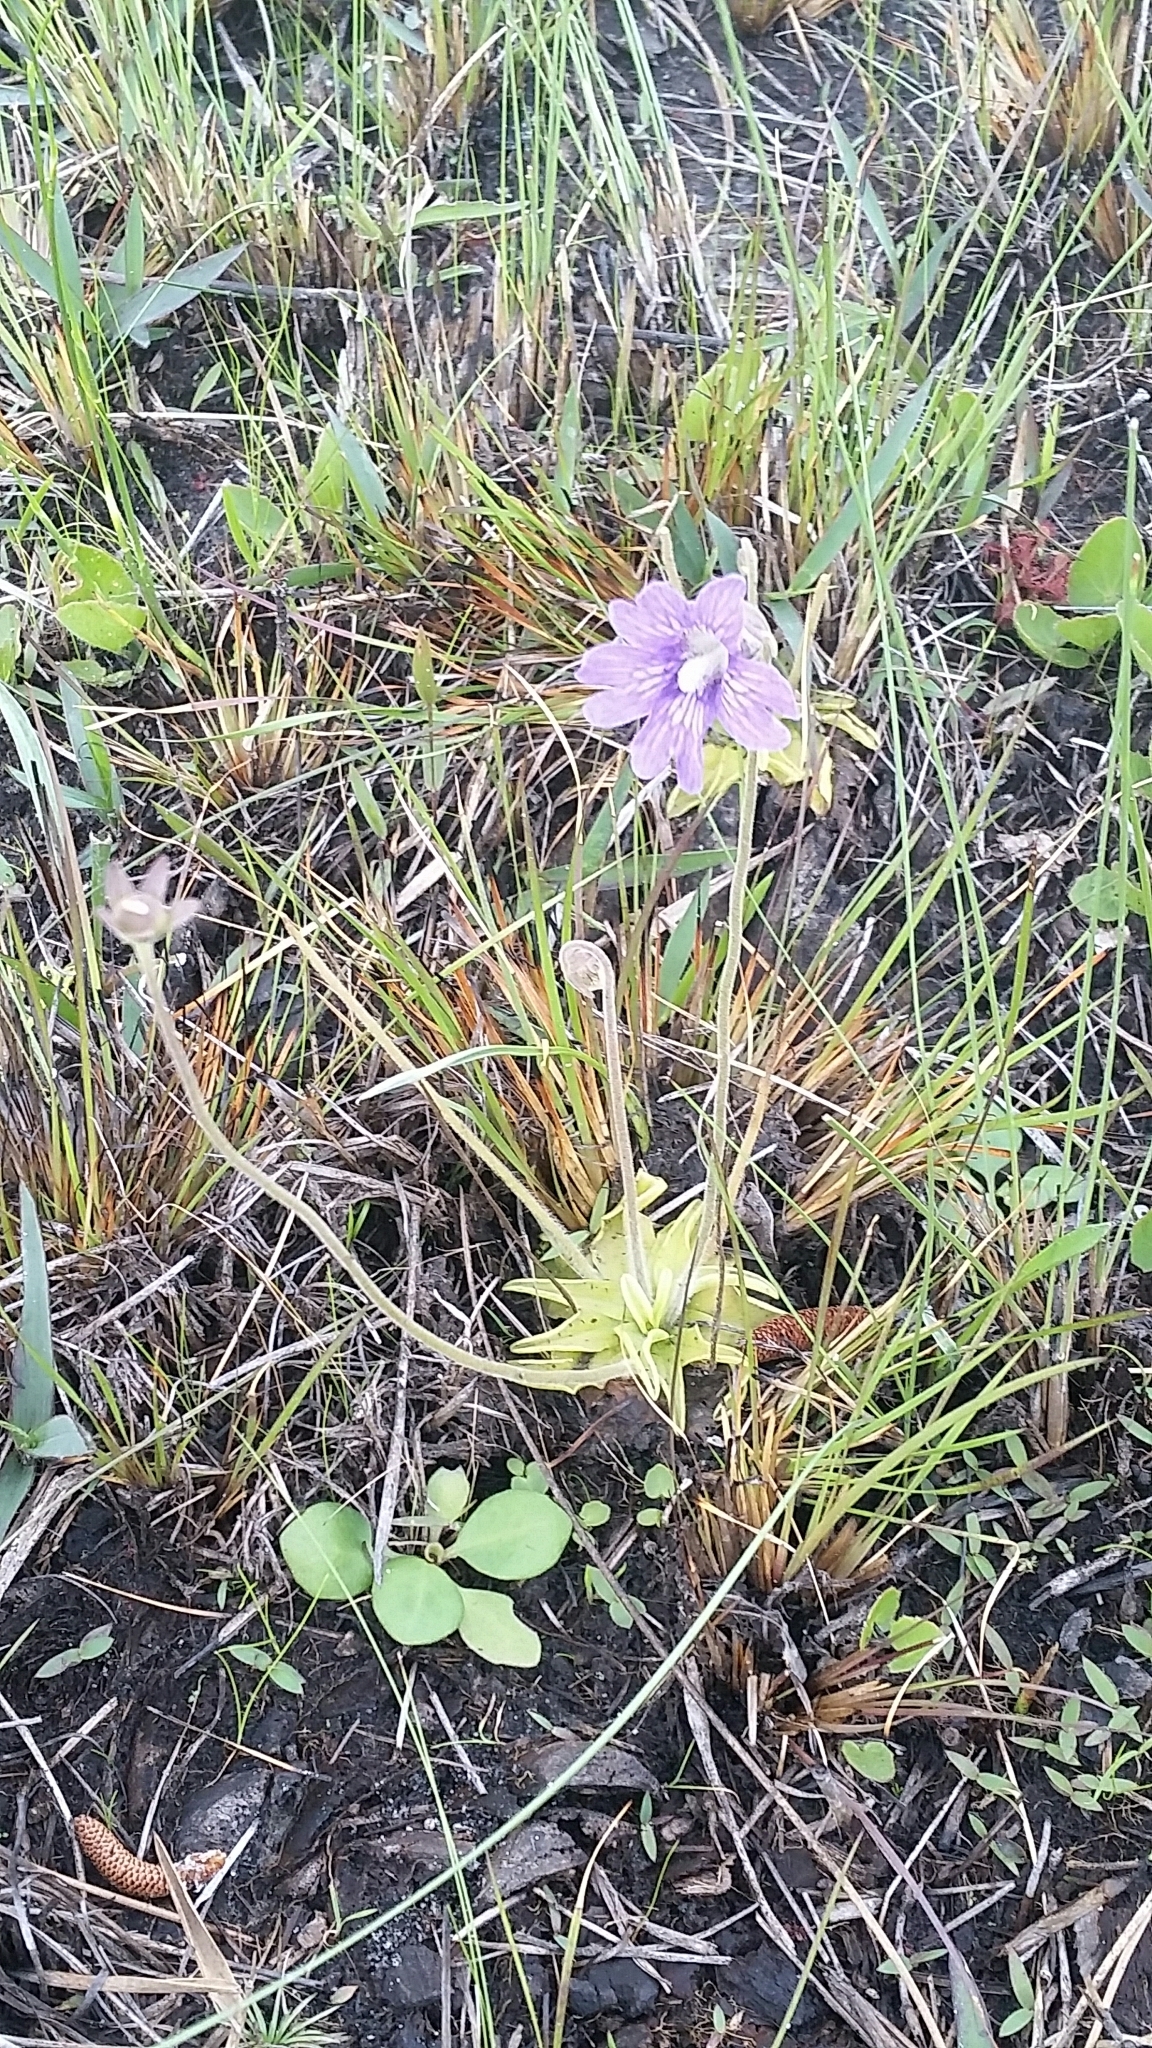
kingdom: Plantae
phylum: Tracheophyta
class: Magnoliopsida
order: Lamiales
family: Lentibulariaceae
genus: Pinguicula
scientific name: Pinguicula caerulea
